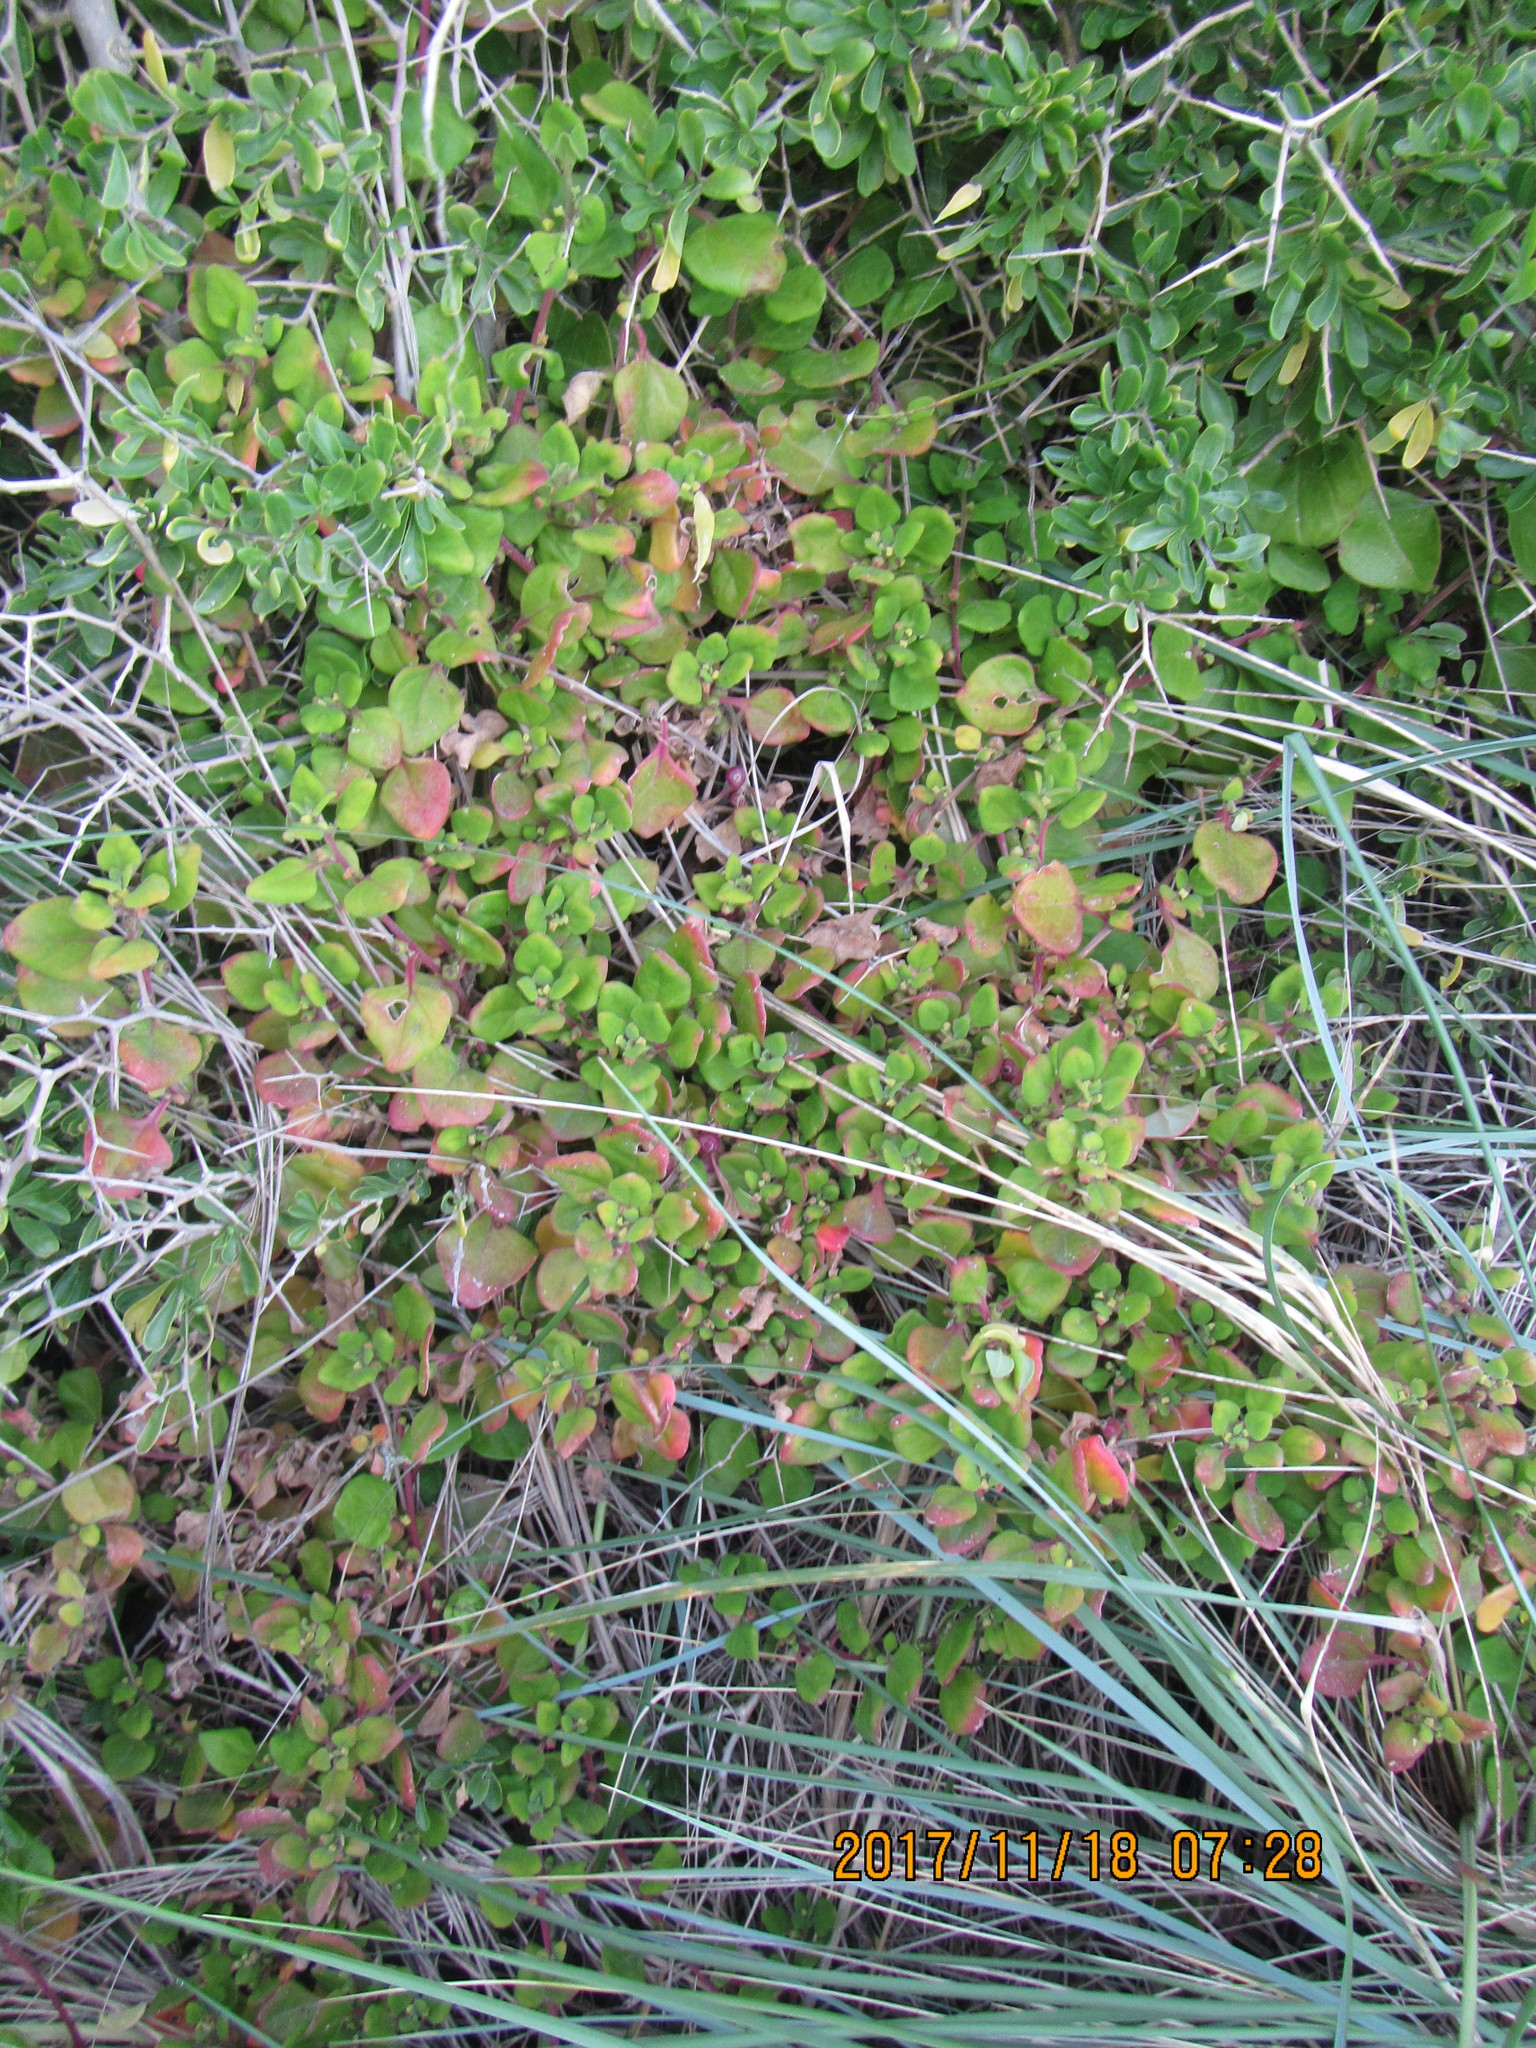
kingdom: Plantae
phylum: Tracheophyta
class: Magnoliopsida
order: Caryophyllales
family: Aizoaceae
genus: Tetragonia
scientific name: Tetragonia implexicoma
